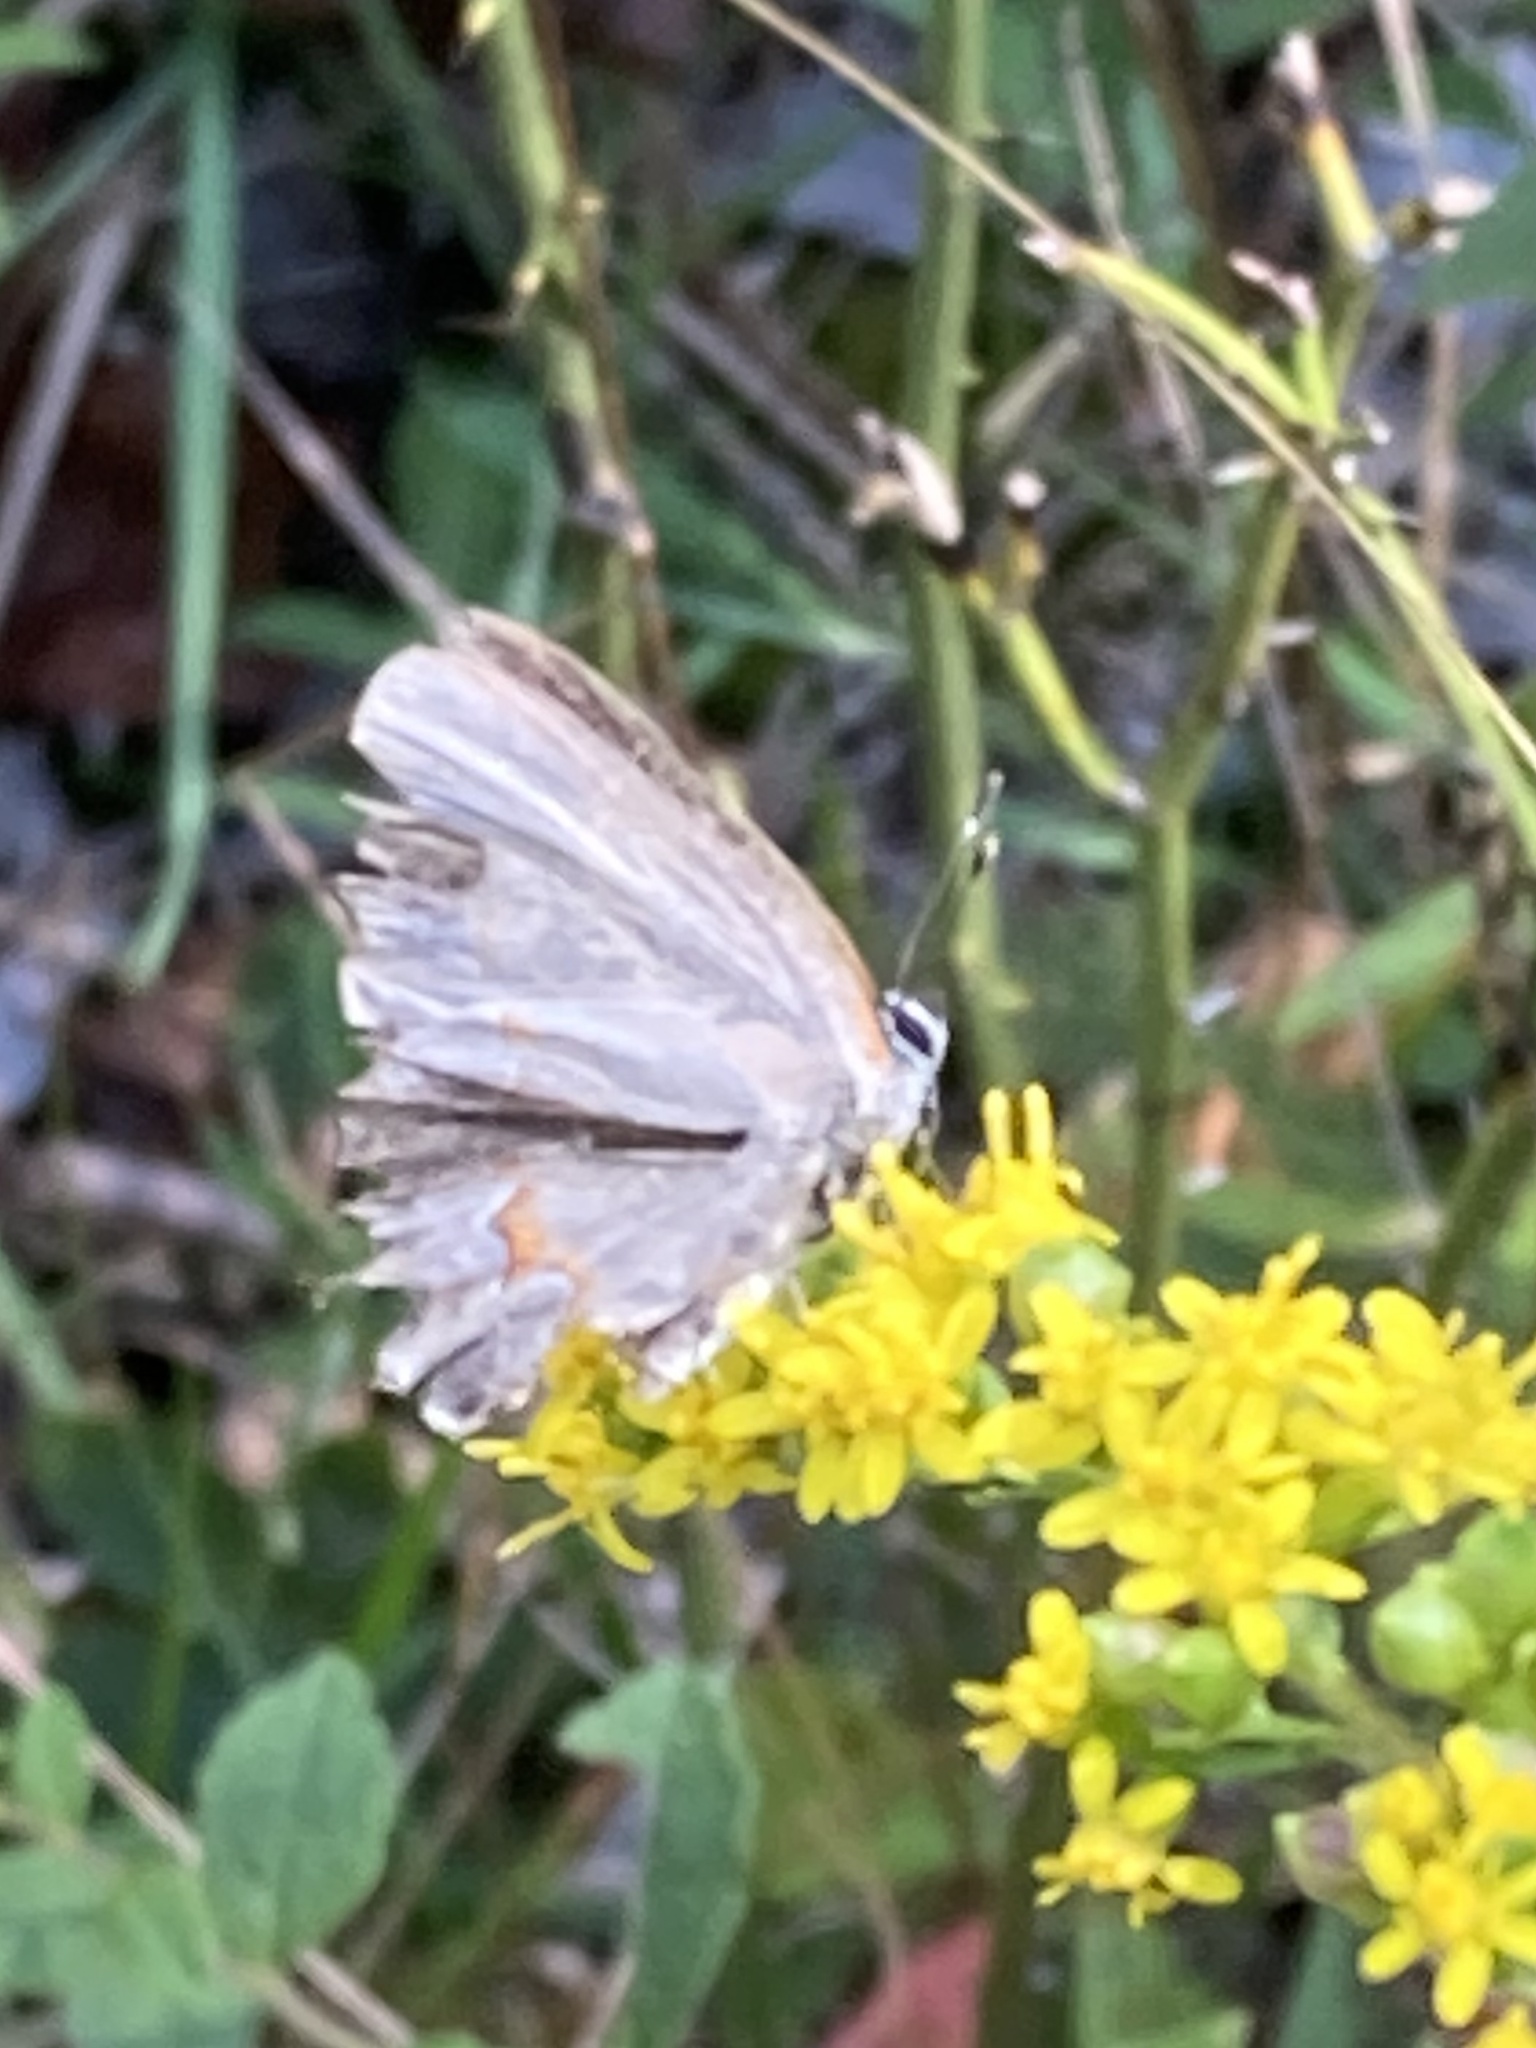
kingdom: Animalia
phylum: Arthropoda
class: Insecta
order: Lepidoptera
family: Lycaenidae
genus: Calycopis
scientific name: Calycopis cecrops
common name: Red-banded hairstreak
